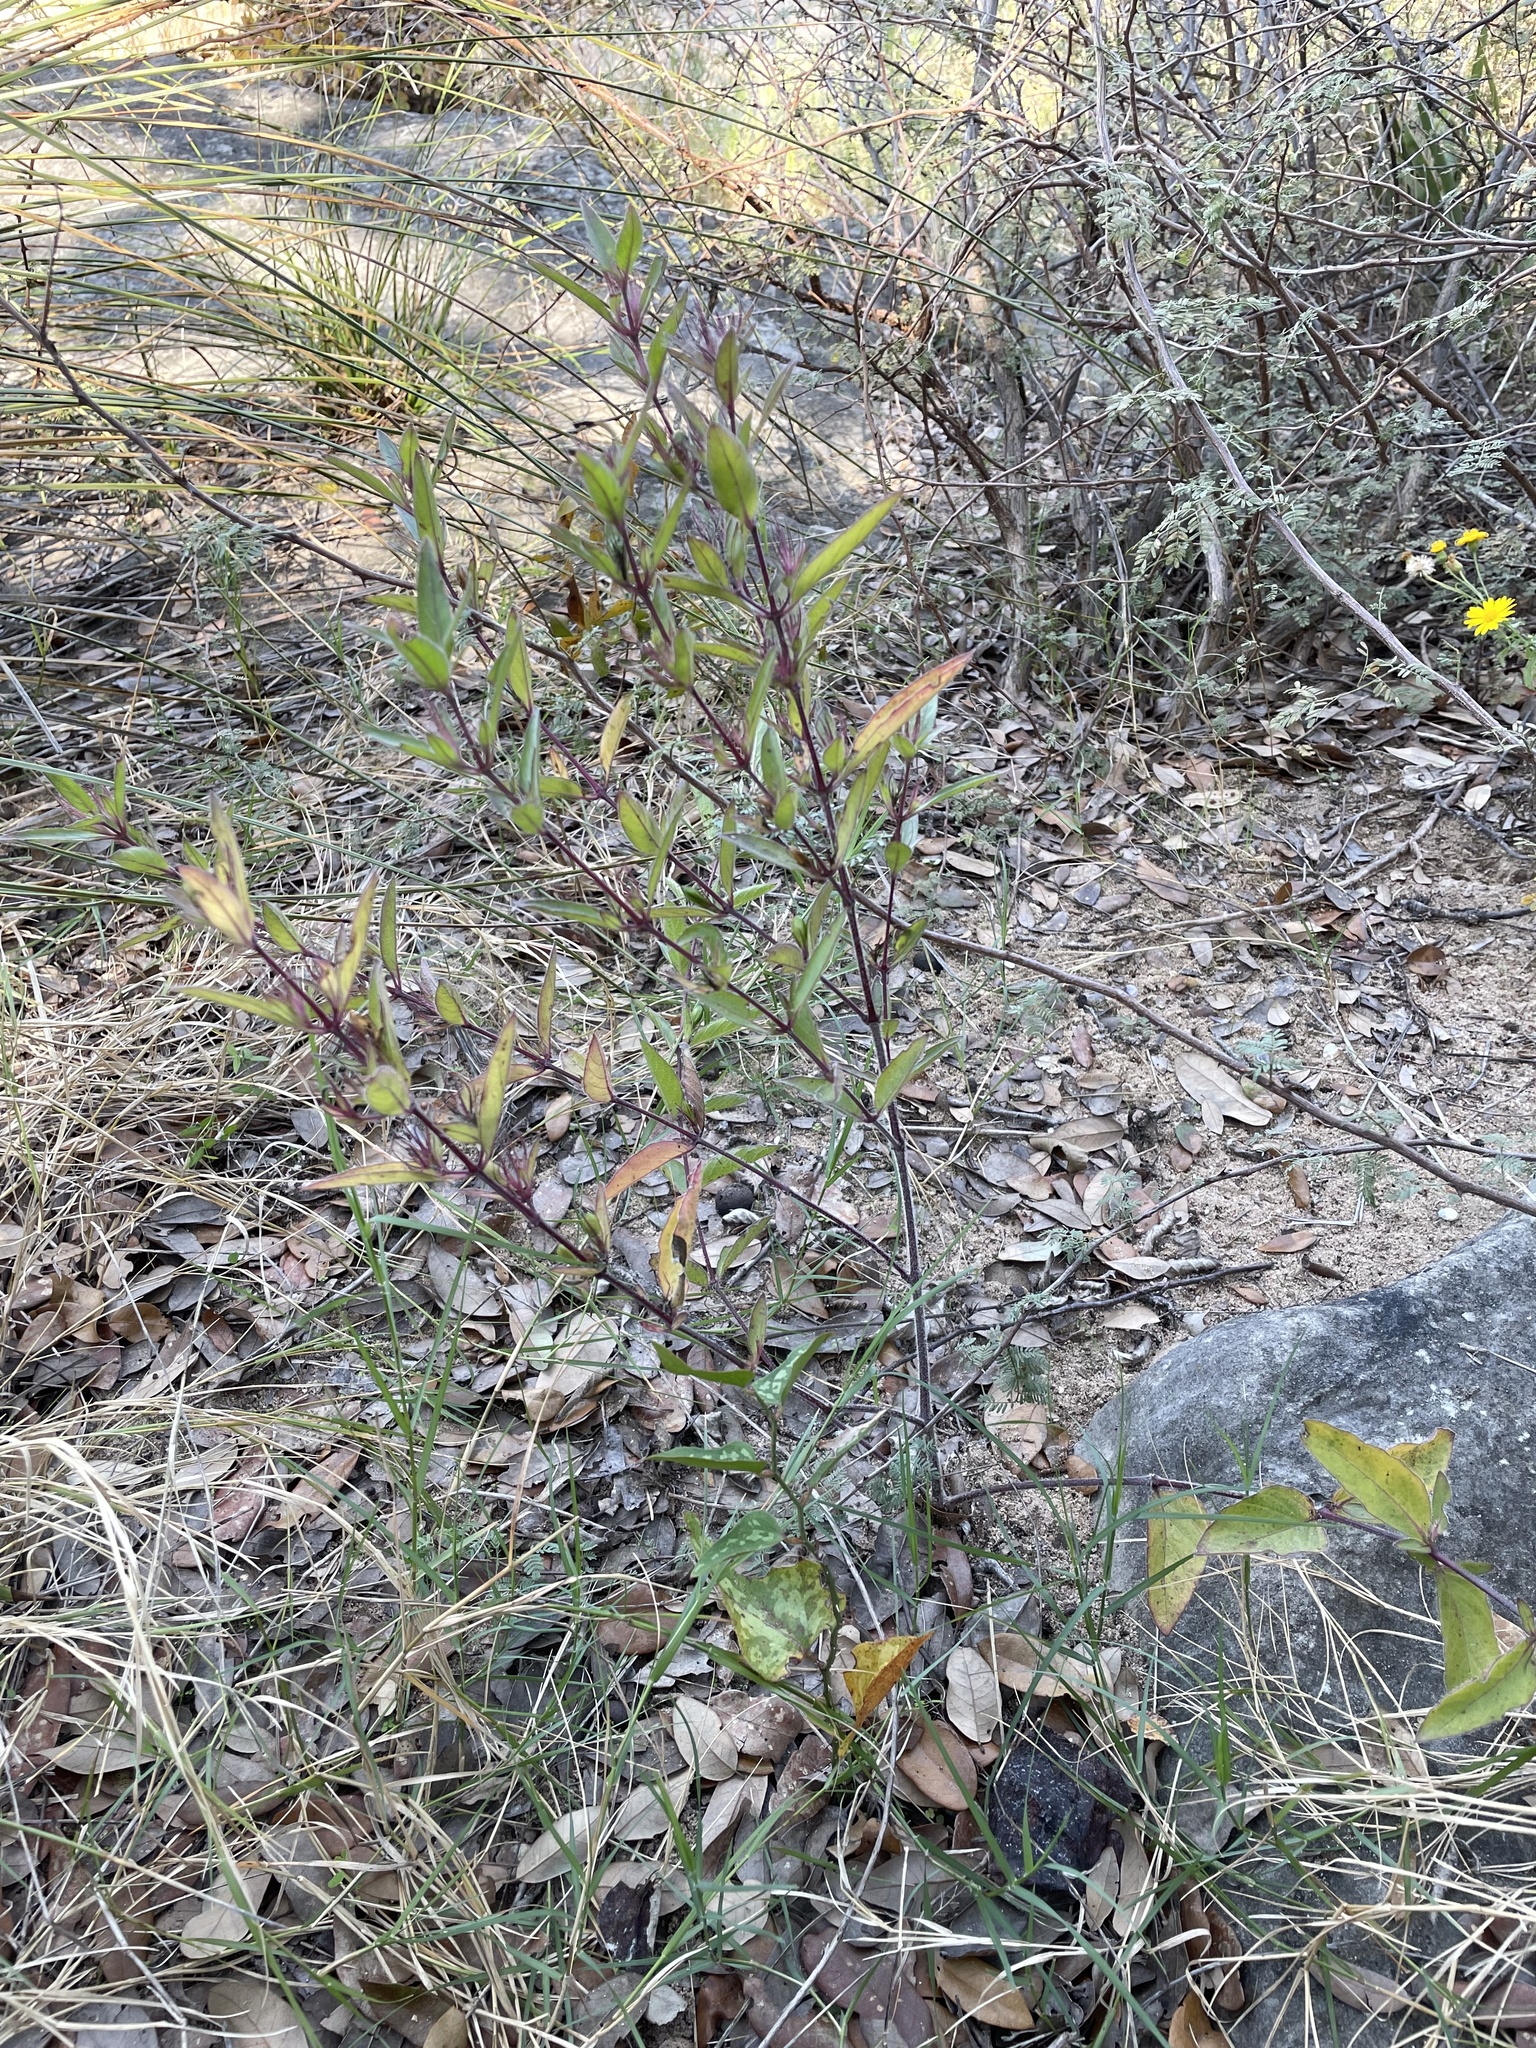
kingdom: Plantae
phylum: Tracheophyta
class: Magnoliopsida
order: Lamiales
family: Acanthaceae
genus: Ruellia
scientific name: Ruellia humilis
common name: Fringe-leaf ruellia
